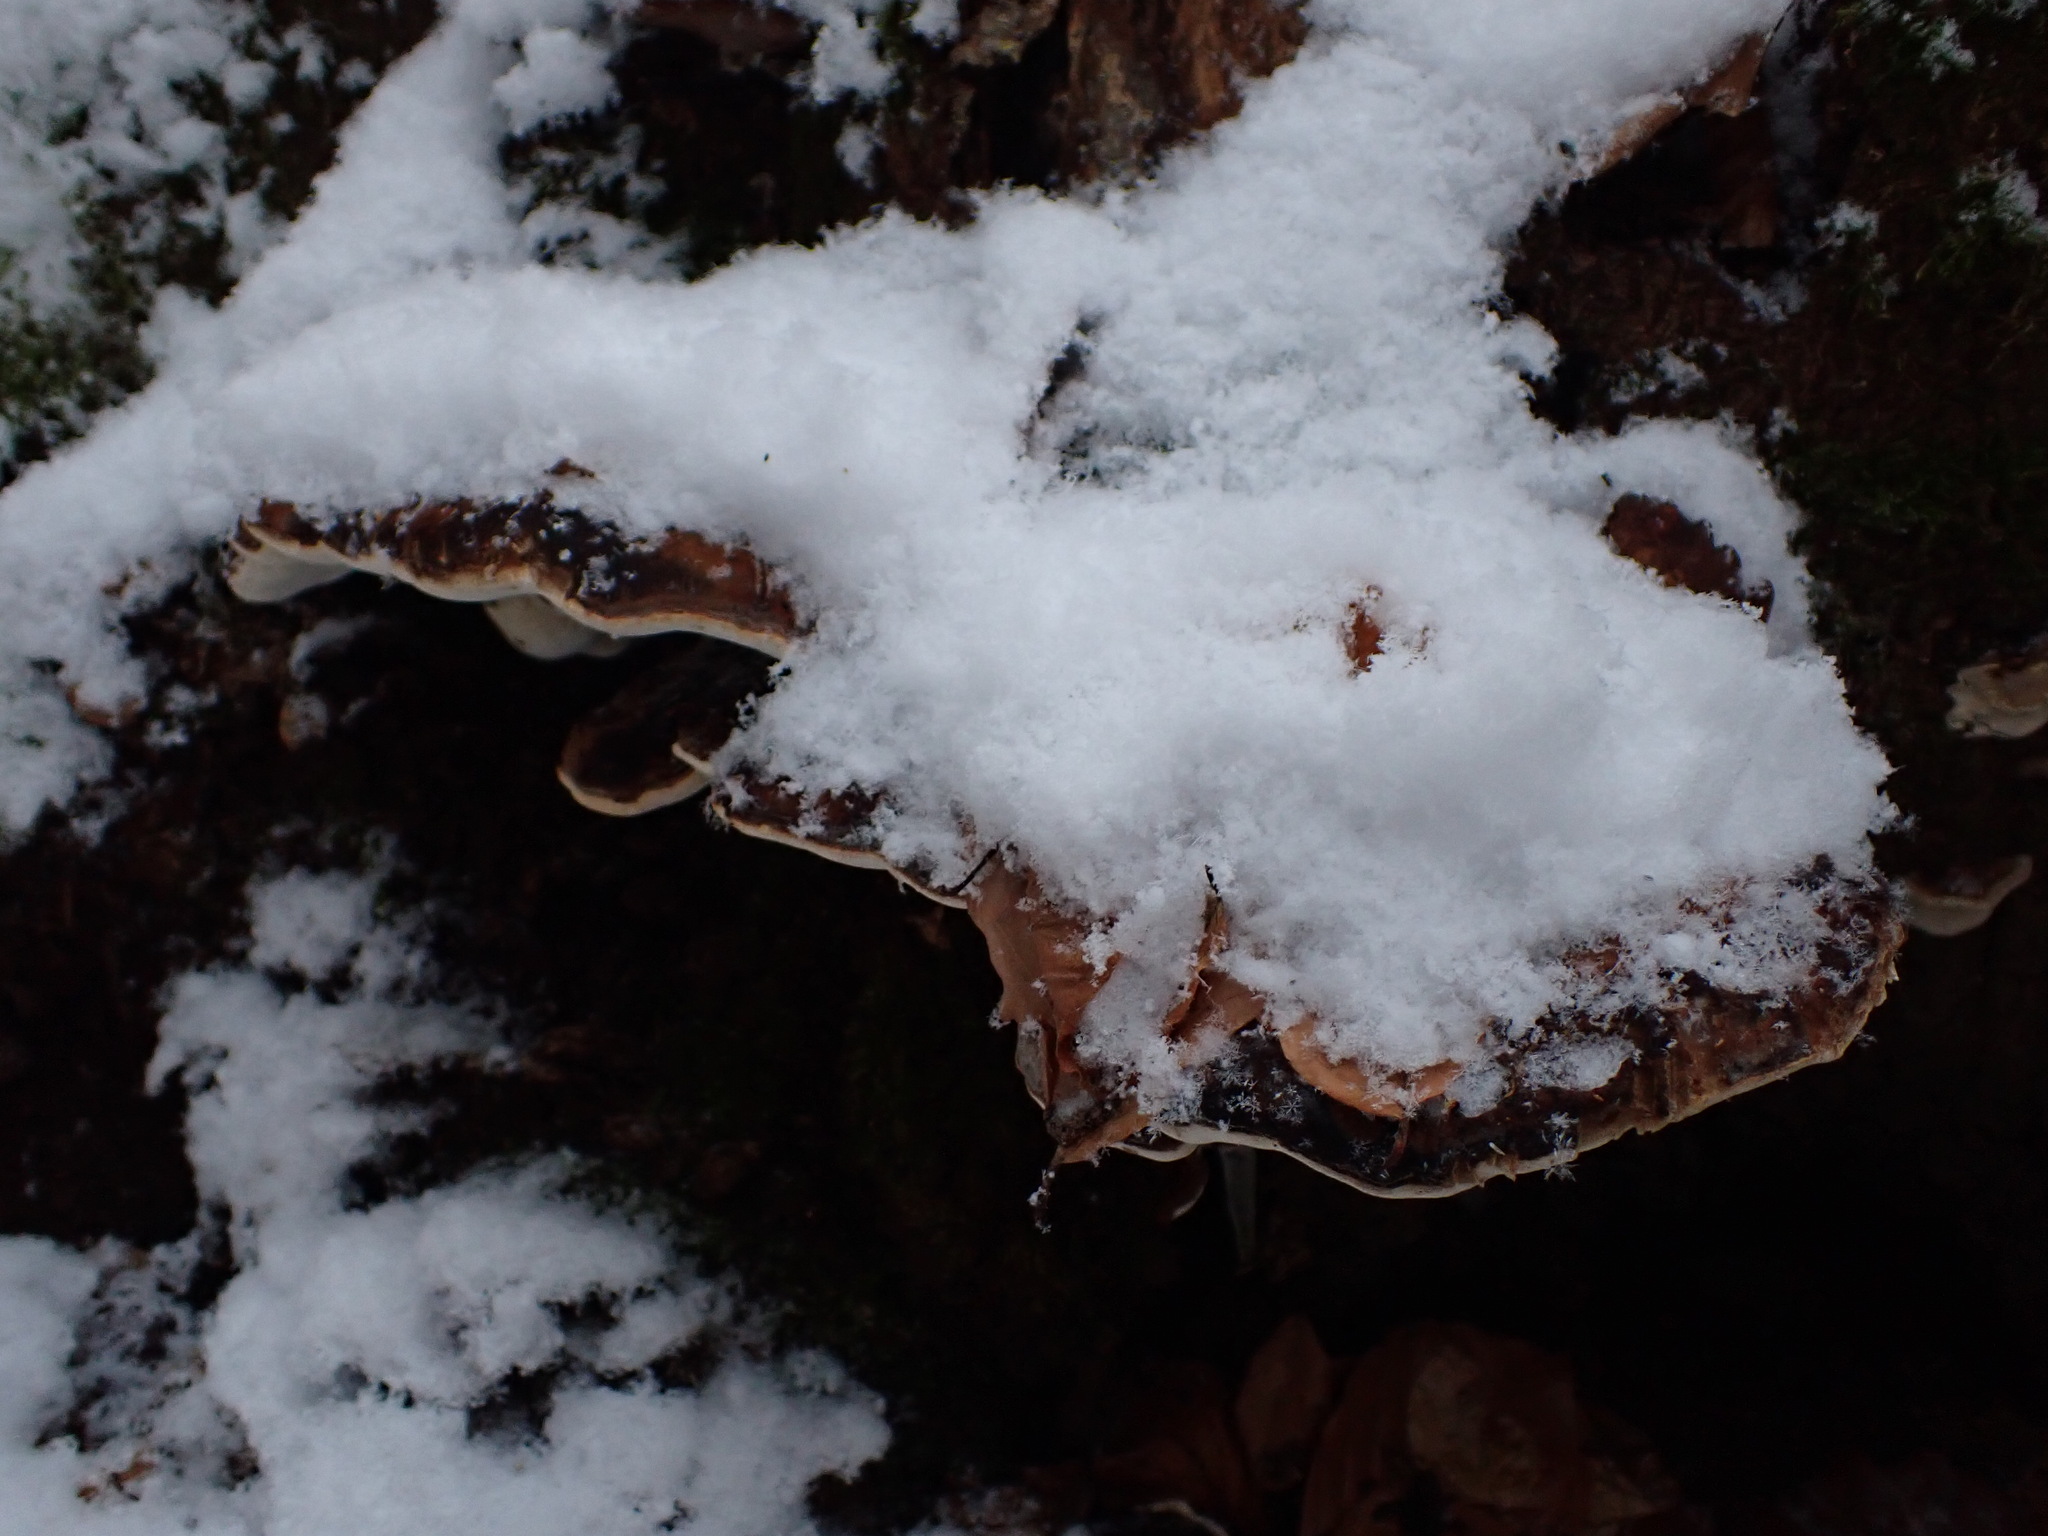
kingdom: Fungi
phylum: Basidiomycota
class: Agaricomycetes
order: Polyporales
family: Ischnodermataceae
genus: Ischnoderma
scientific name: Ischnoderma resinosum
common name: Resinous polypore
